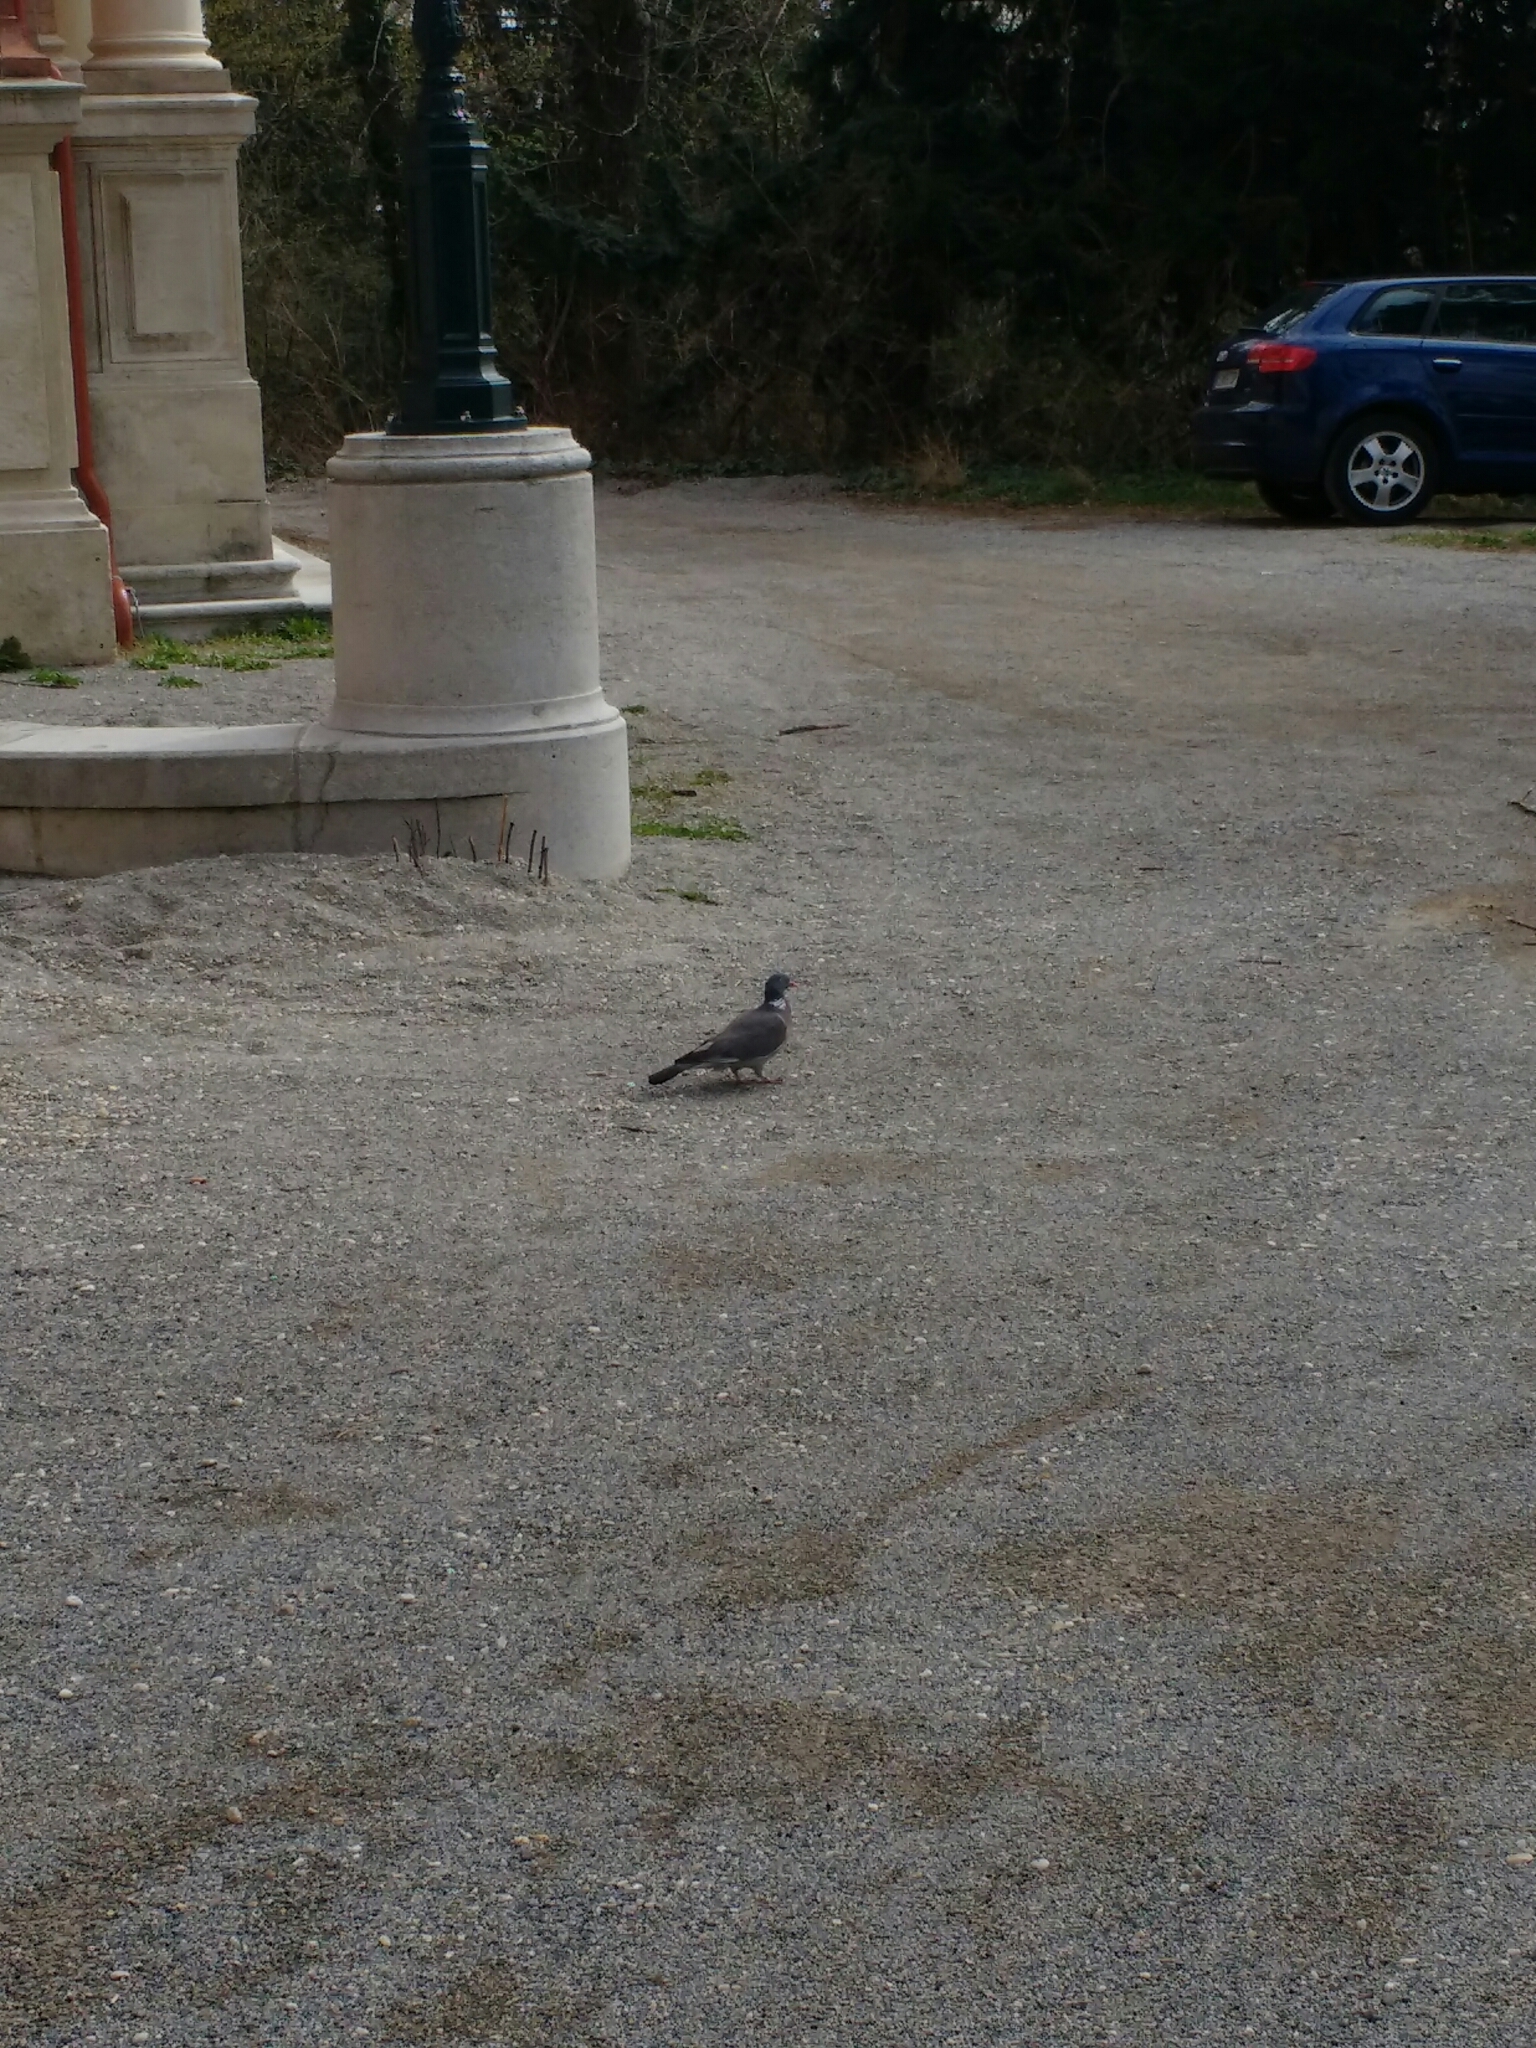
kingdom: Animalia
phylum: Chordata
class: Aves
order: Columbiformes
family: Columbidae
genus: Columba
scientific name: Columba palumbus
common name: Common wood pigeon
